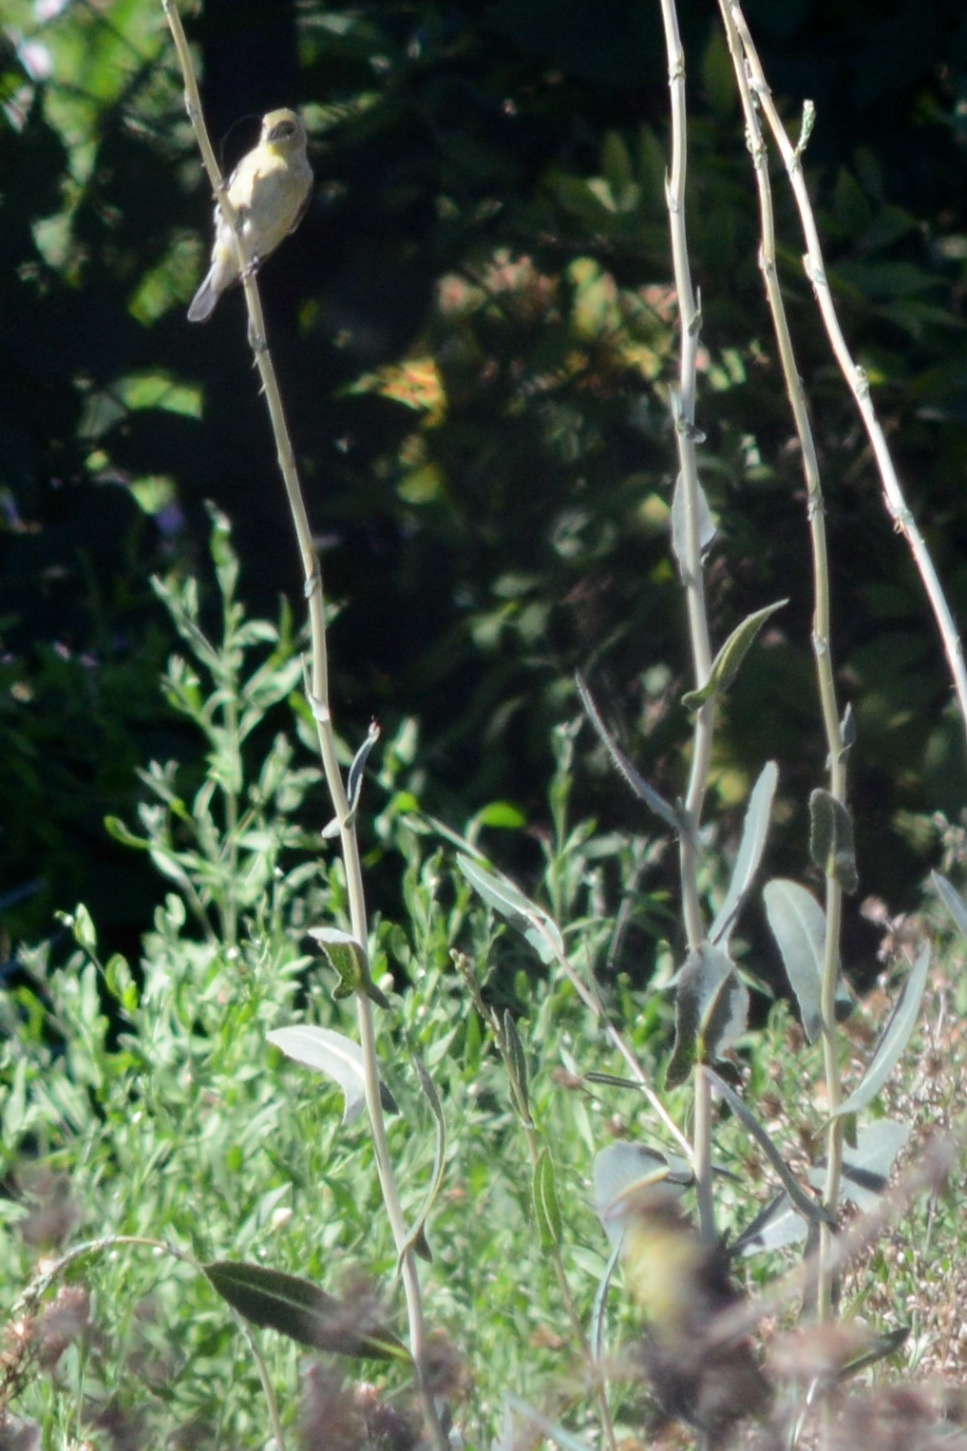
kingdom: Animalia
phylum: Chordata
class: Aves
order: Passeriformes
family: Fringillidae
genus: Spinus
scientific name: Spinus psaltria
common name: Lesser goldfinch
